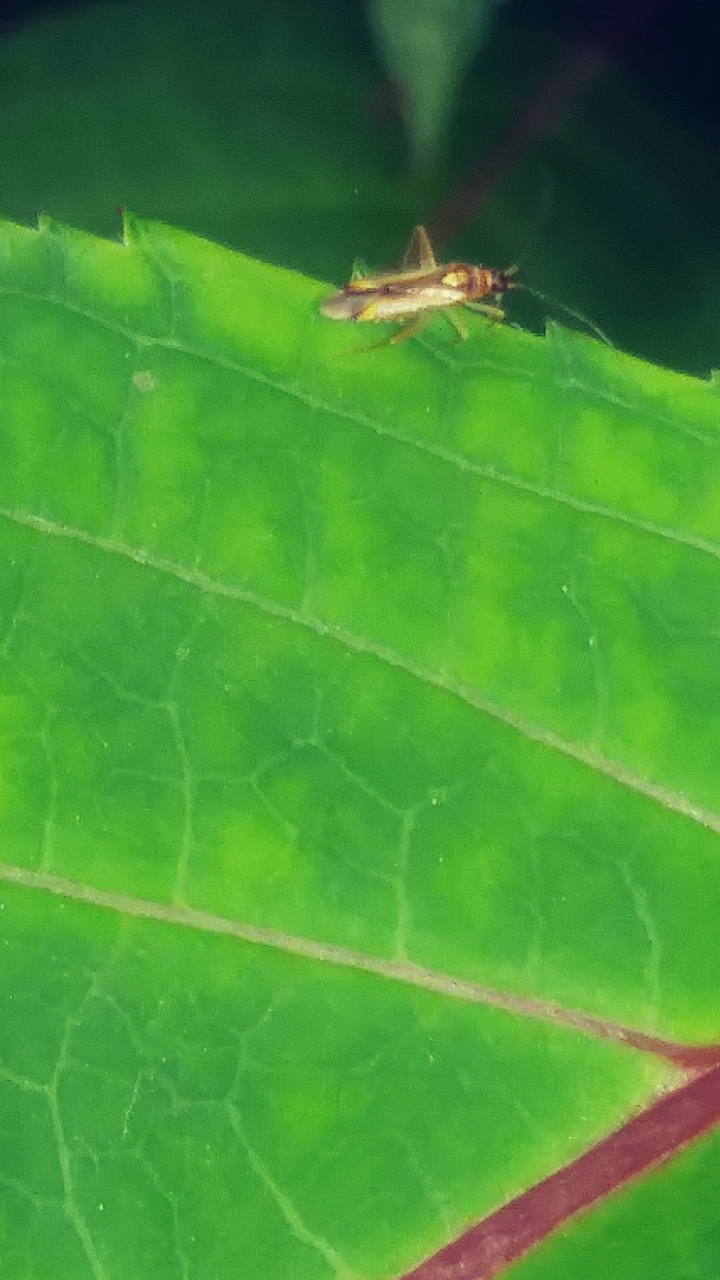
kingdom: Animalia
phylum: Arthropoda
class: Insecta
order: Hemiptera
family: Miridae
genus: Campyloneura
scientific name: Campyloneura virgula
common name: Predatory bug
